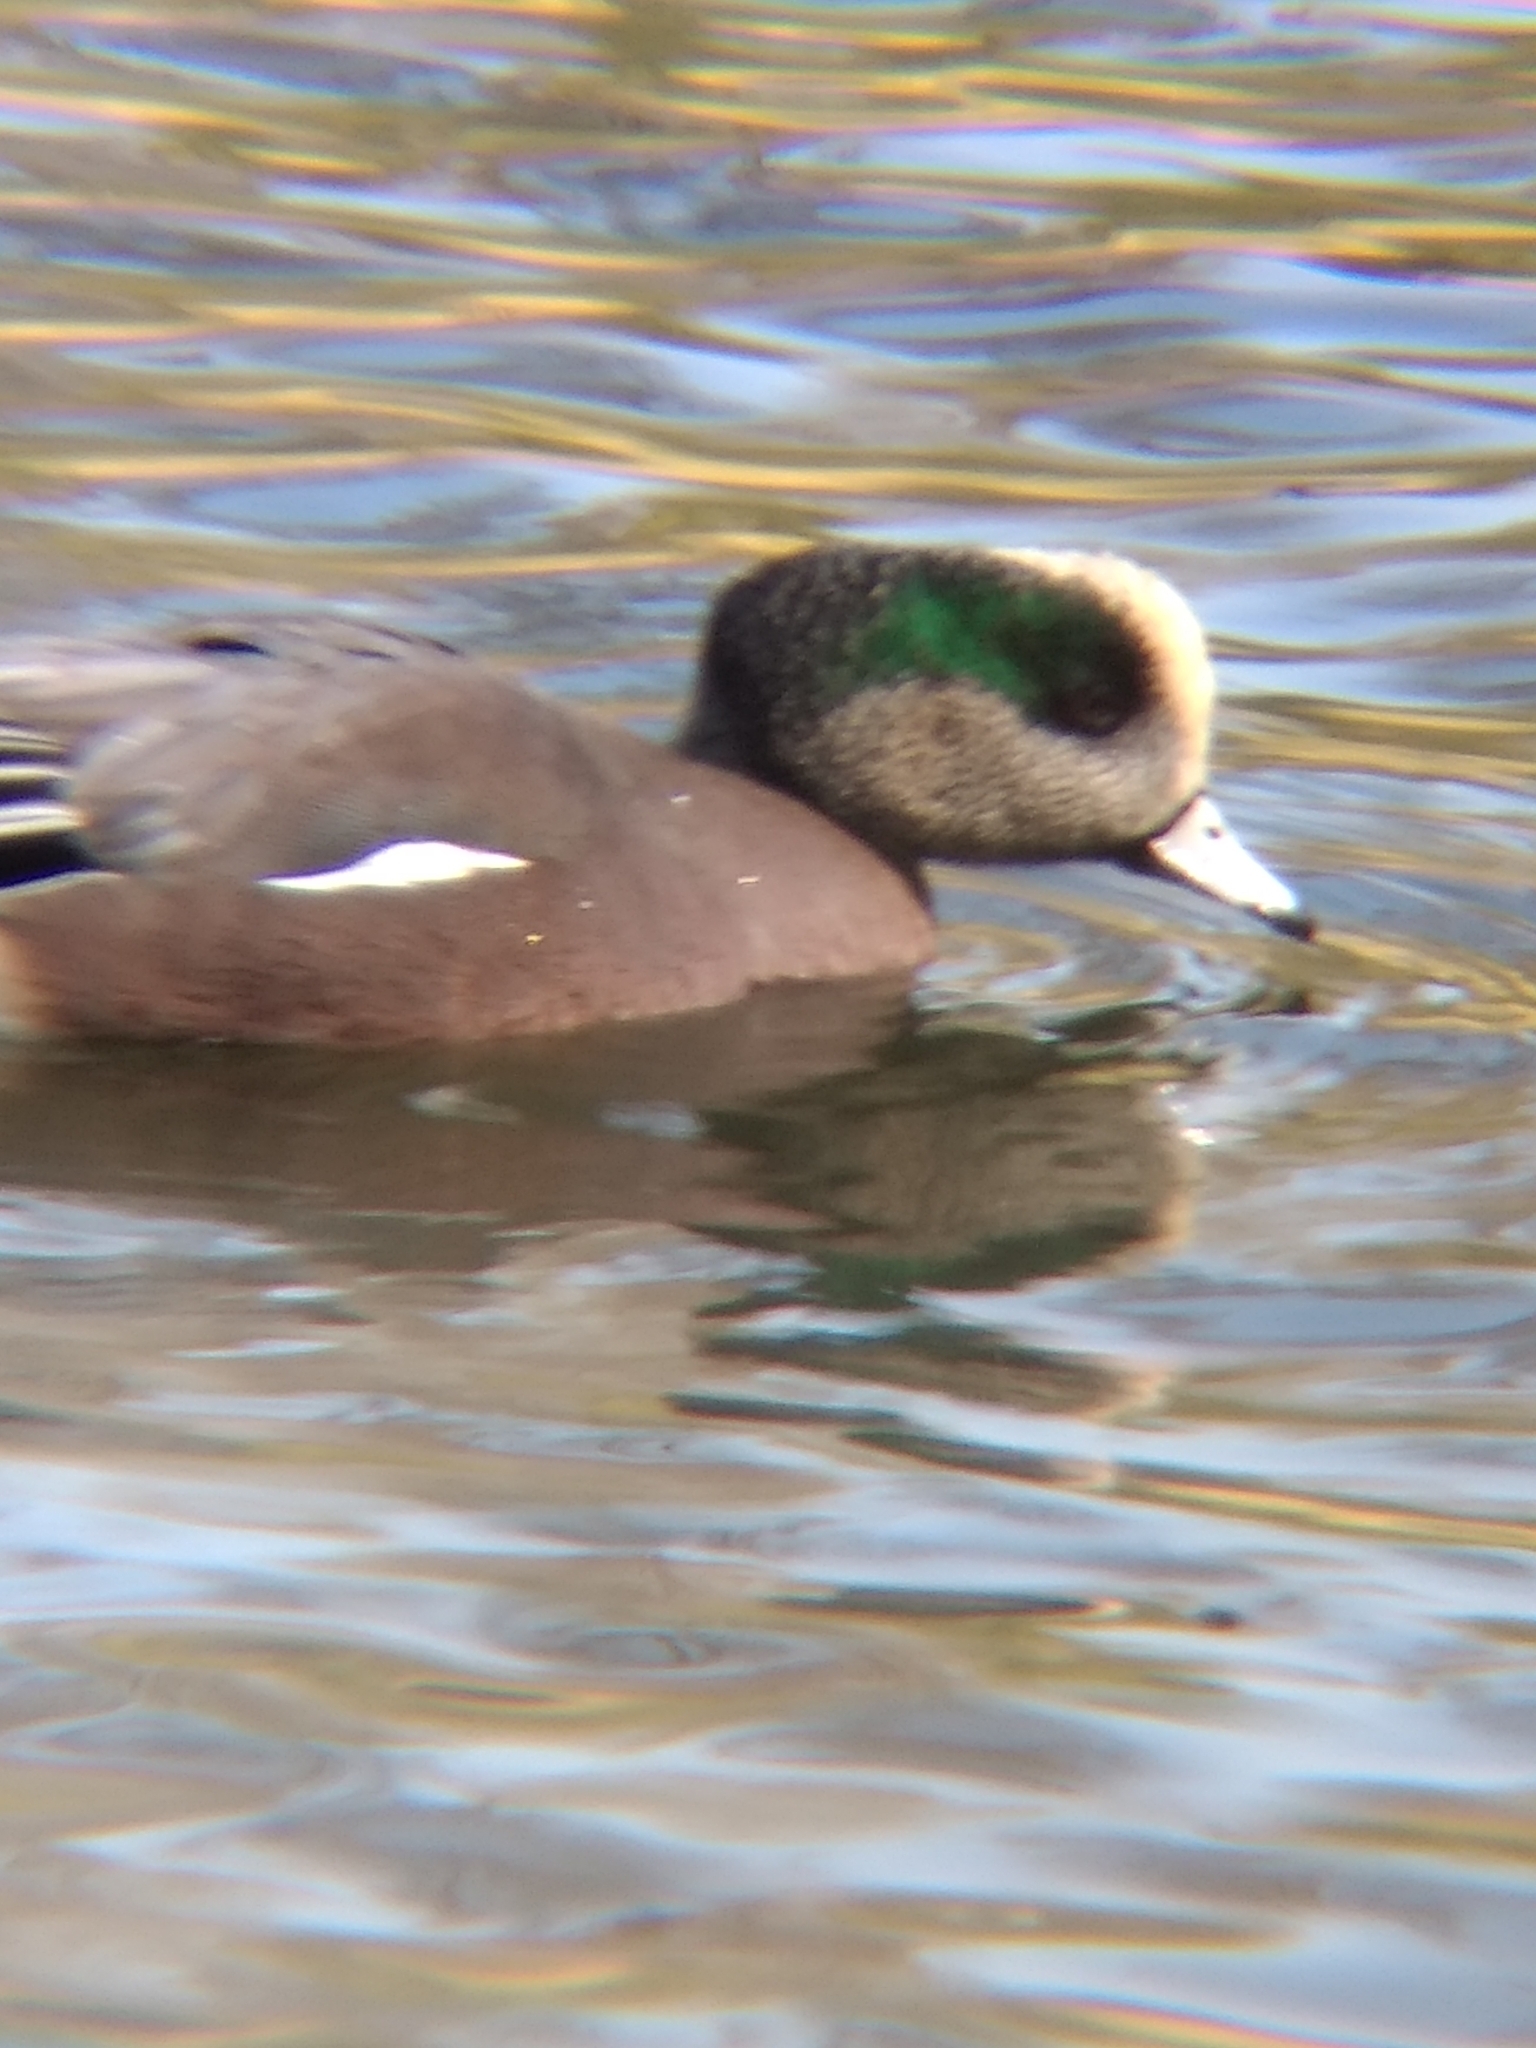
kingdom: Animalia
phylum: Chordata
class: Aves
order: Anseriformes
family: Anatidae
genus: Mareca
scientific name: Mareca americana
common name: American wigeon
